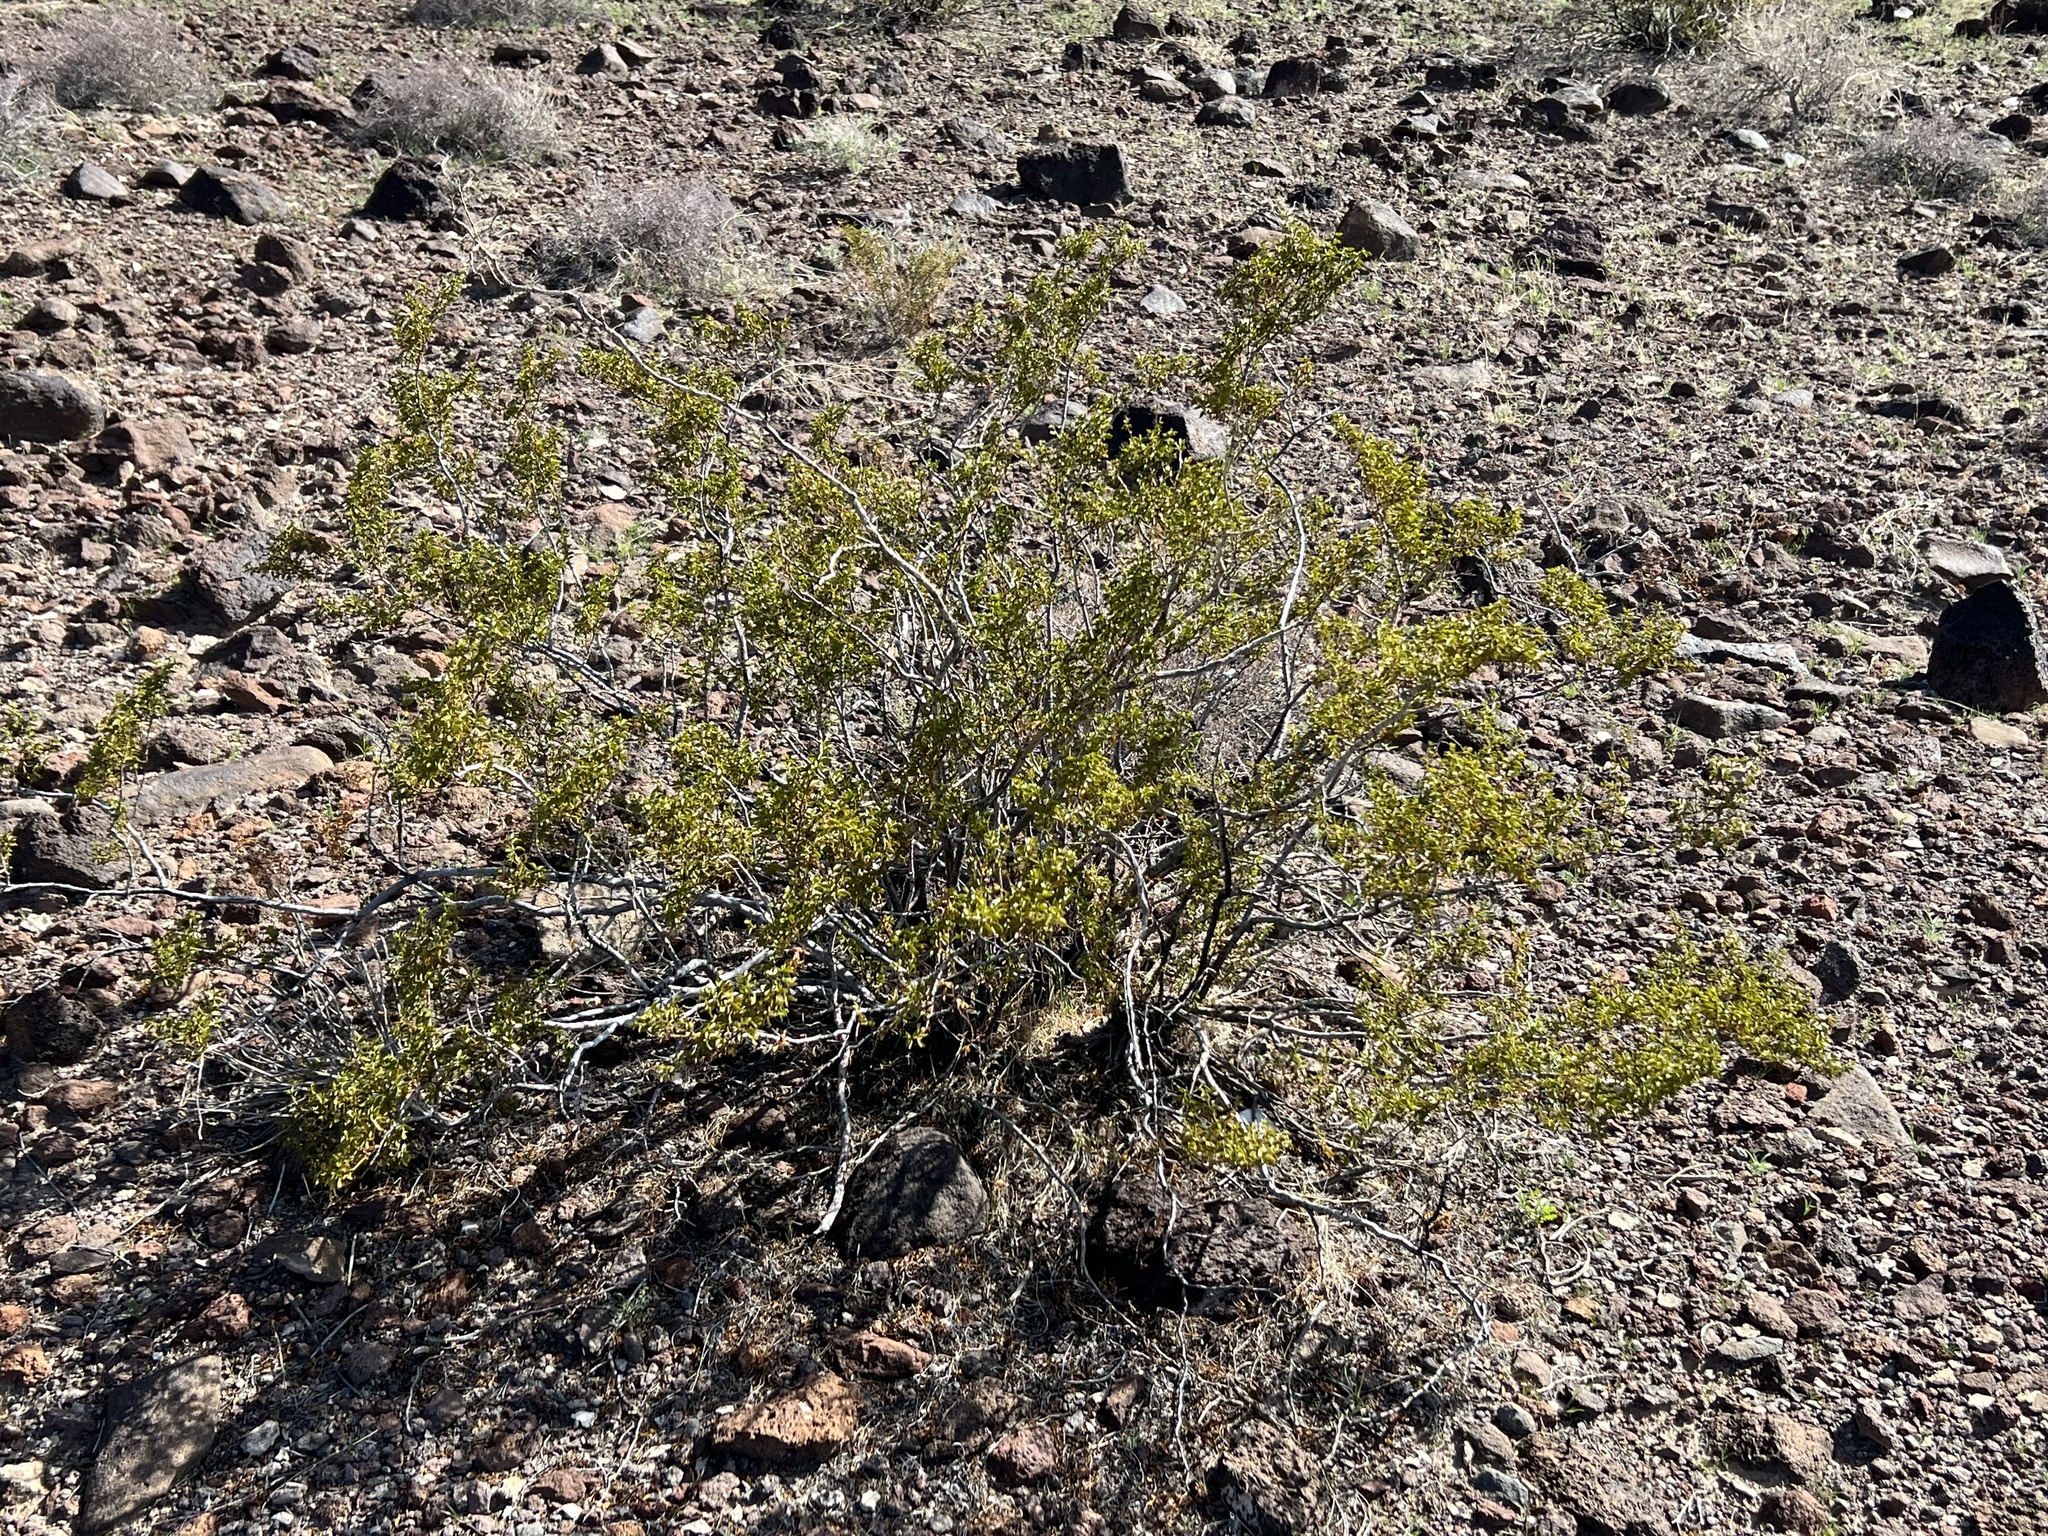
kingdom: Plantae
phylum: Tracheophyta
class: Magnoliopsida
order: Zygophyllales
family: Zygophyllaceae
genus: Larrea
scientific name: Larrea tridentata
